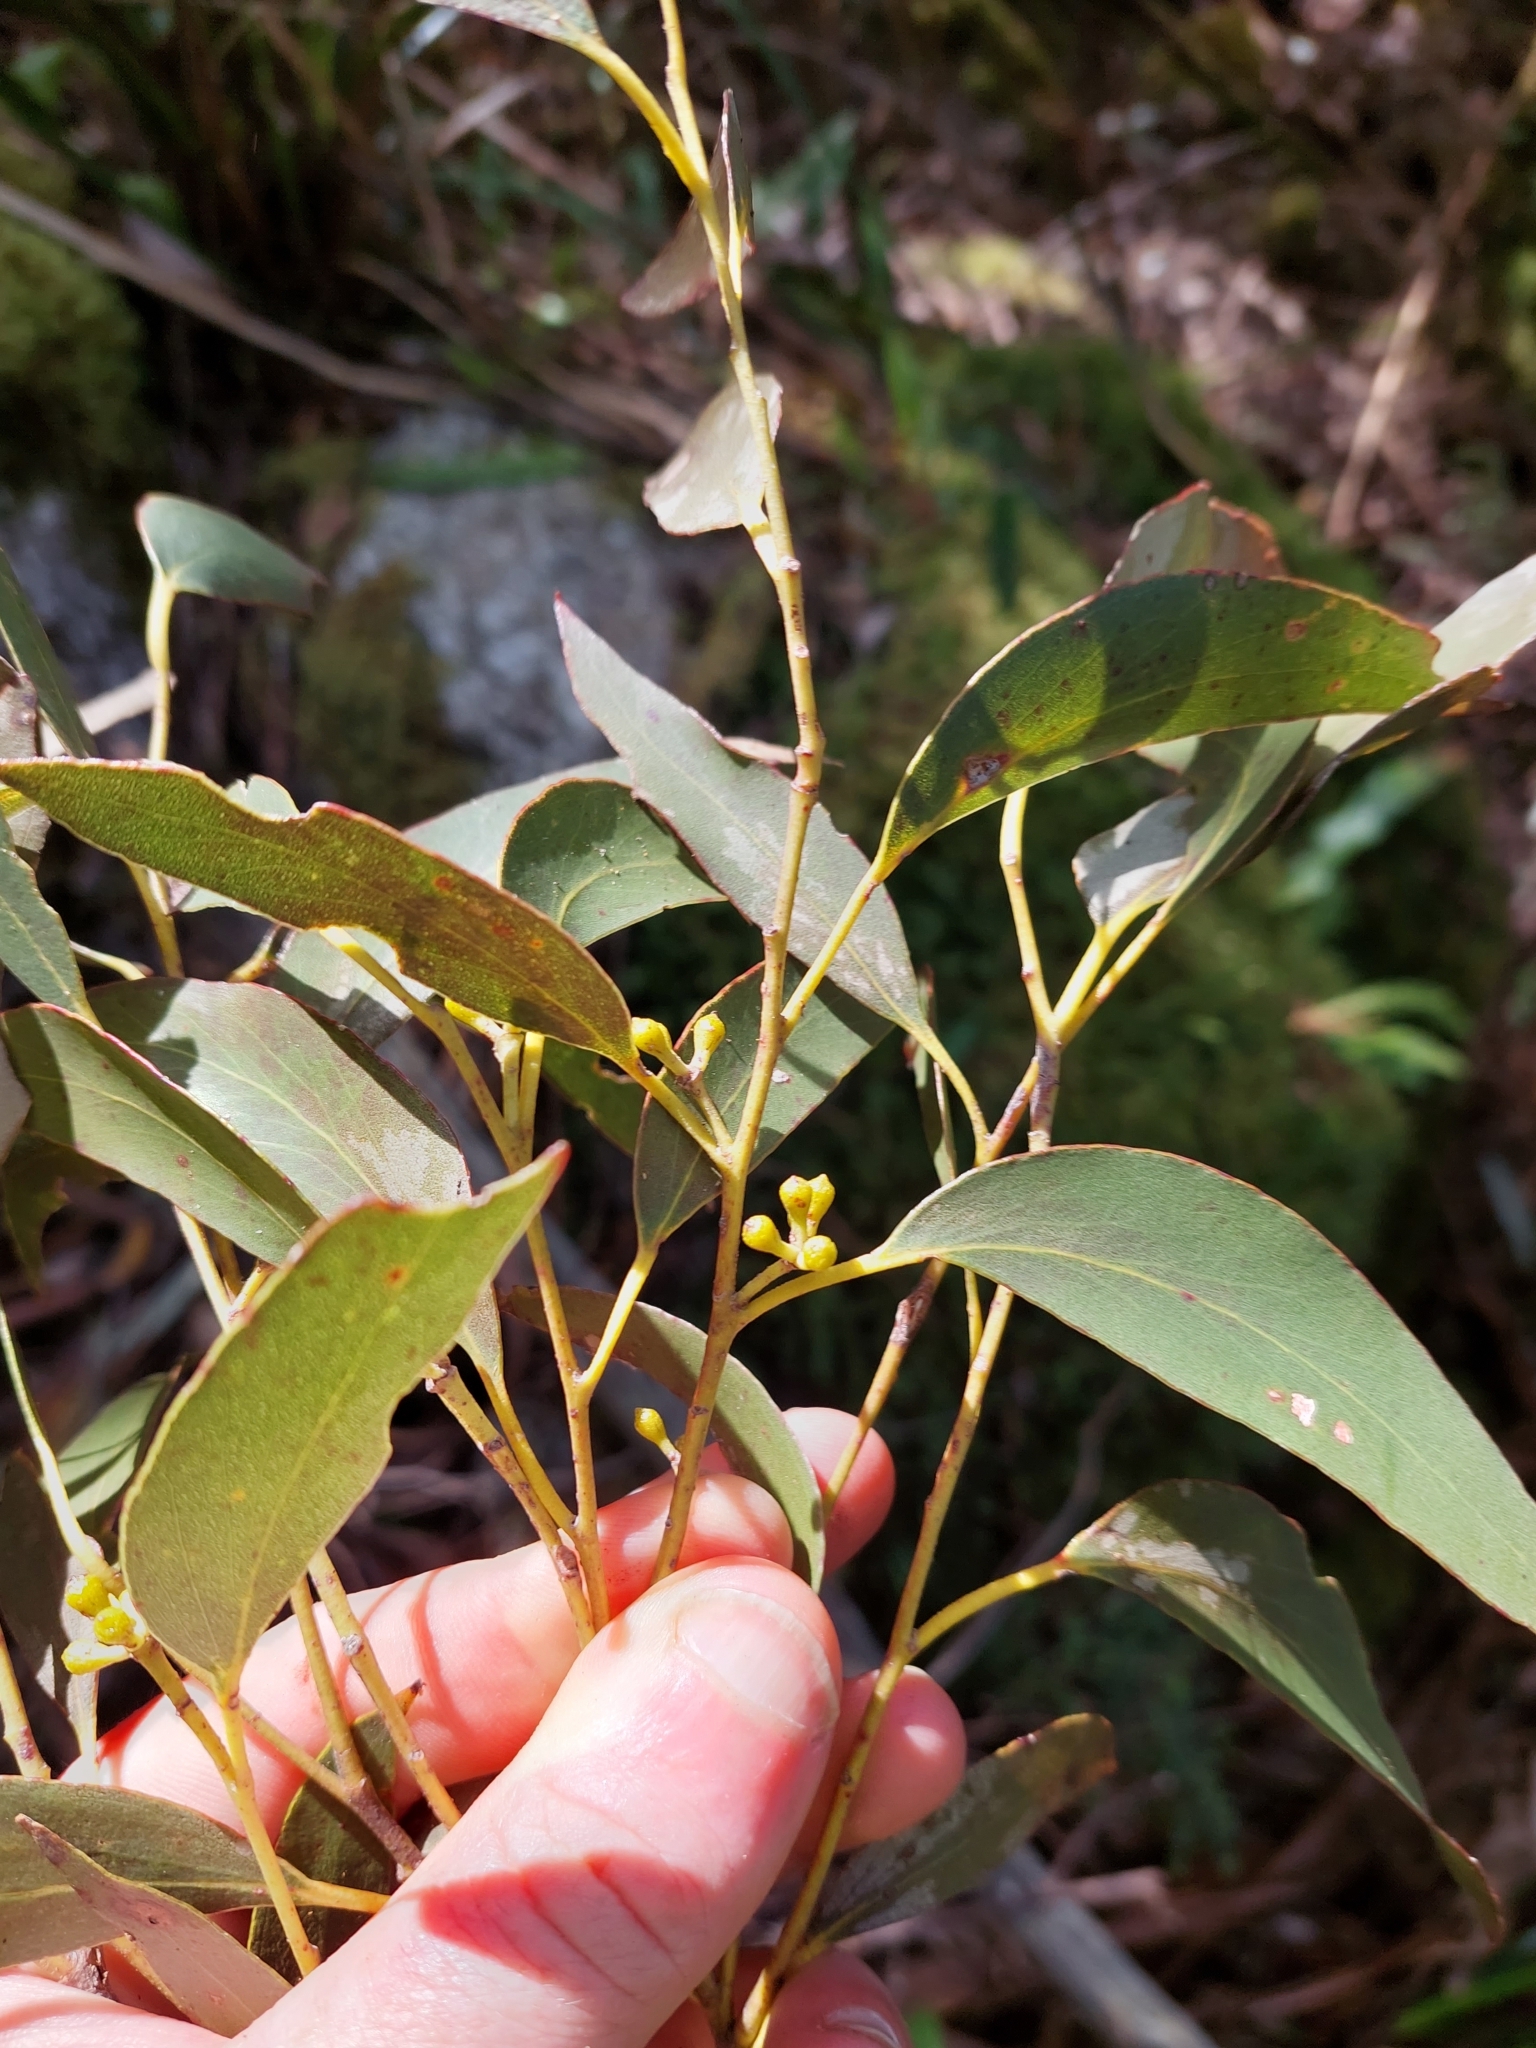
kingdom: Plantae
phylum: Tracheophyta
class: Magnoliopsida
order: Myrtales
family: Myrtaceae
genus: Eucalyptus
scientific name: Eucalyptus regnans
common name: Stringy gum
